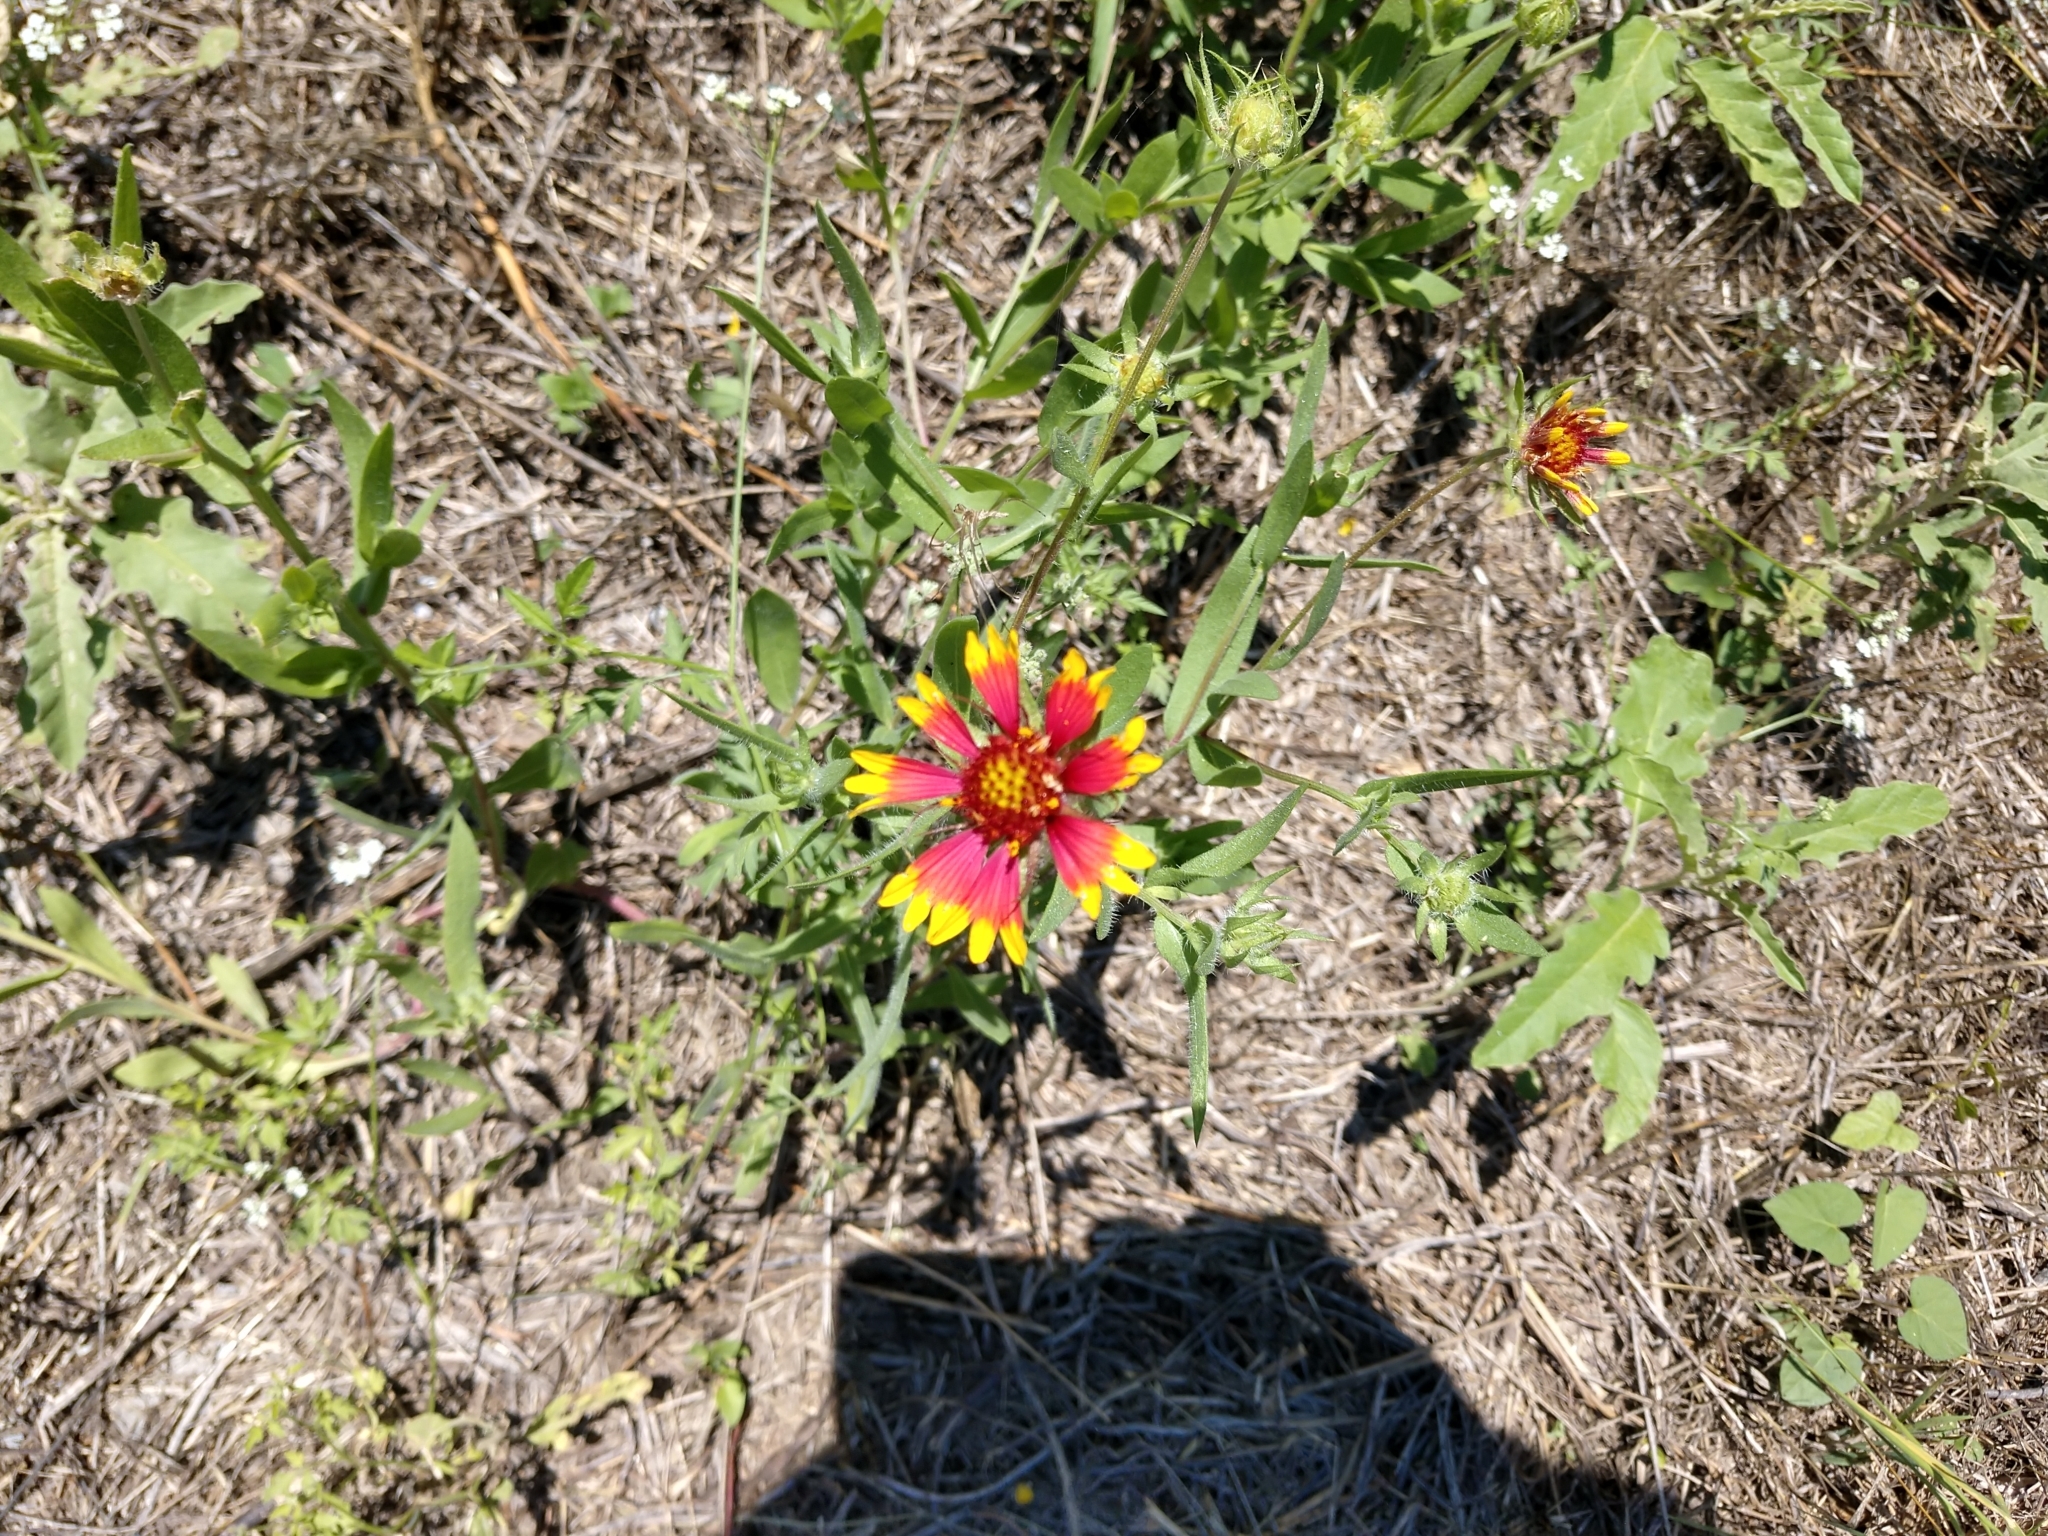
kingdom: Plantae
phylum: Tracheophyta
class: Magnoliopsida
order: Asterales
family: Asteraceae
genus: Gaillardia
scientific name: Gaillardia pulchella
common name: Firewheel
